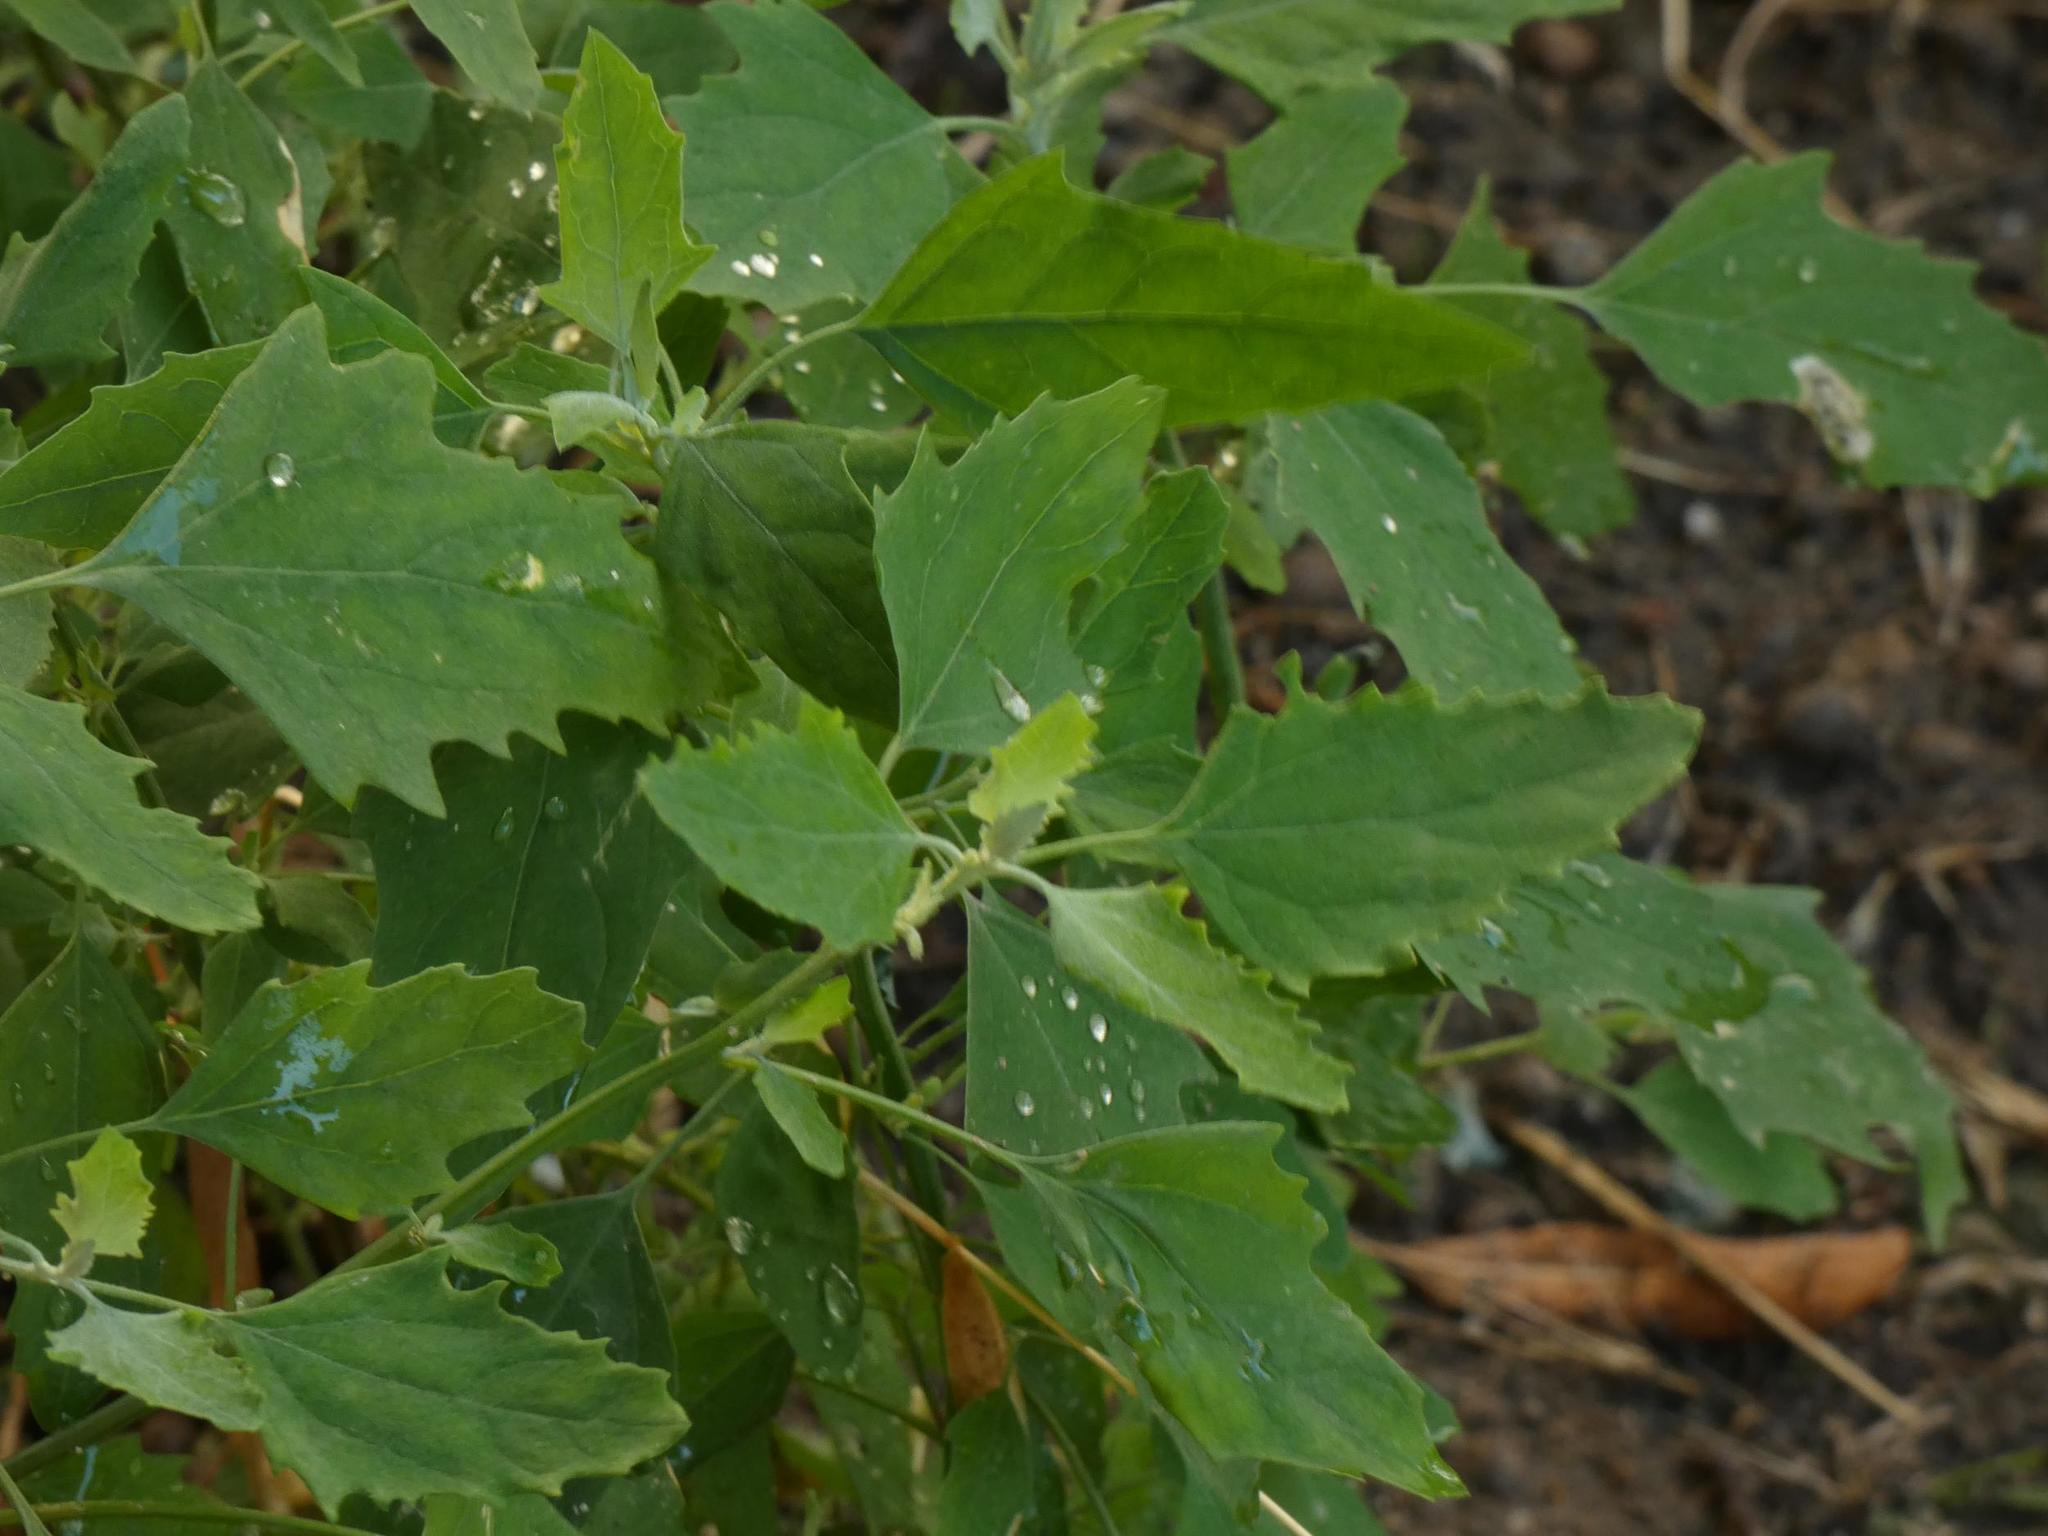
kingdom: Plantae
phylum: Tracheophyta
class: Magnoliopsida
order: Caryophyllales
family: Amaranthaceae
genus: Chenopodium
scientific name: Chenopodium album
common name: Fat-hen
